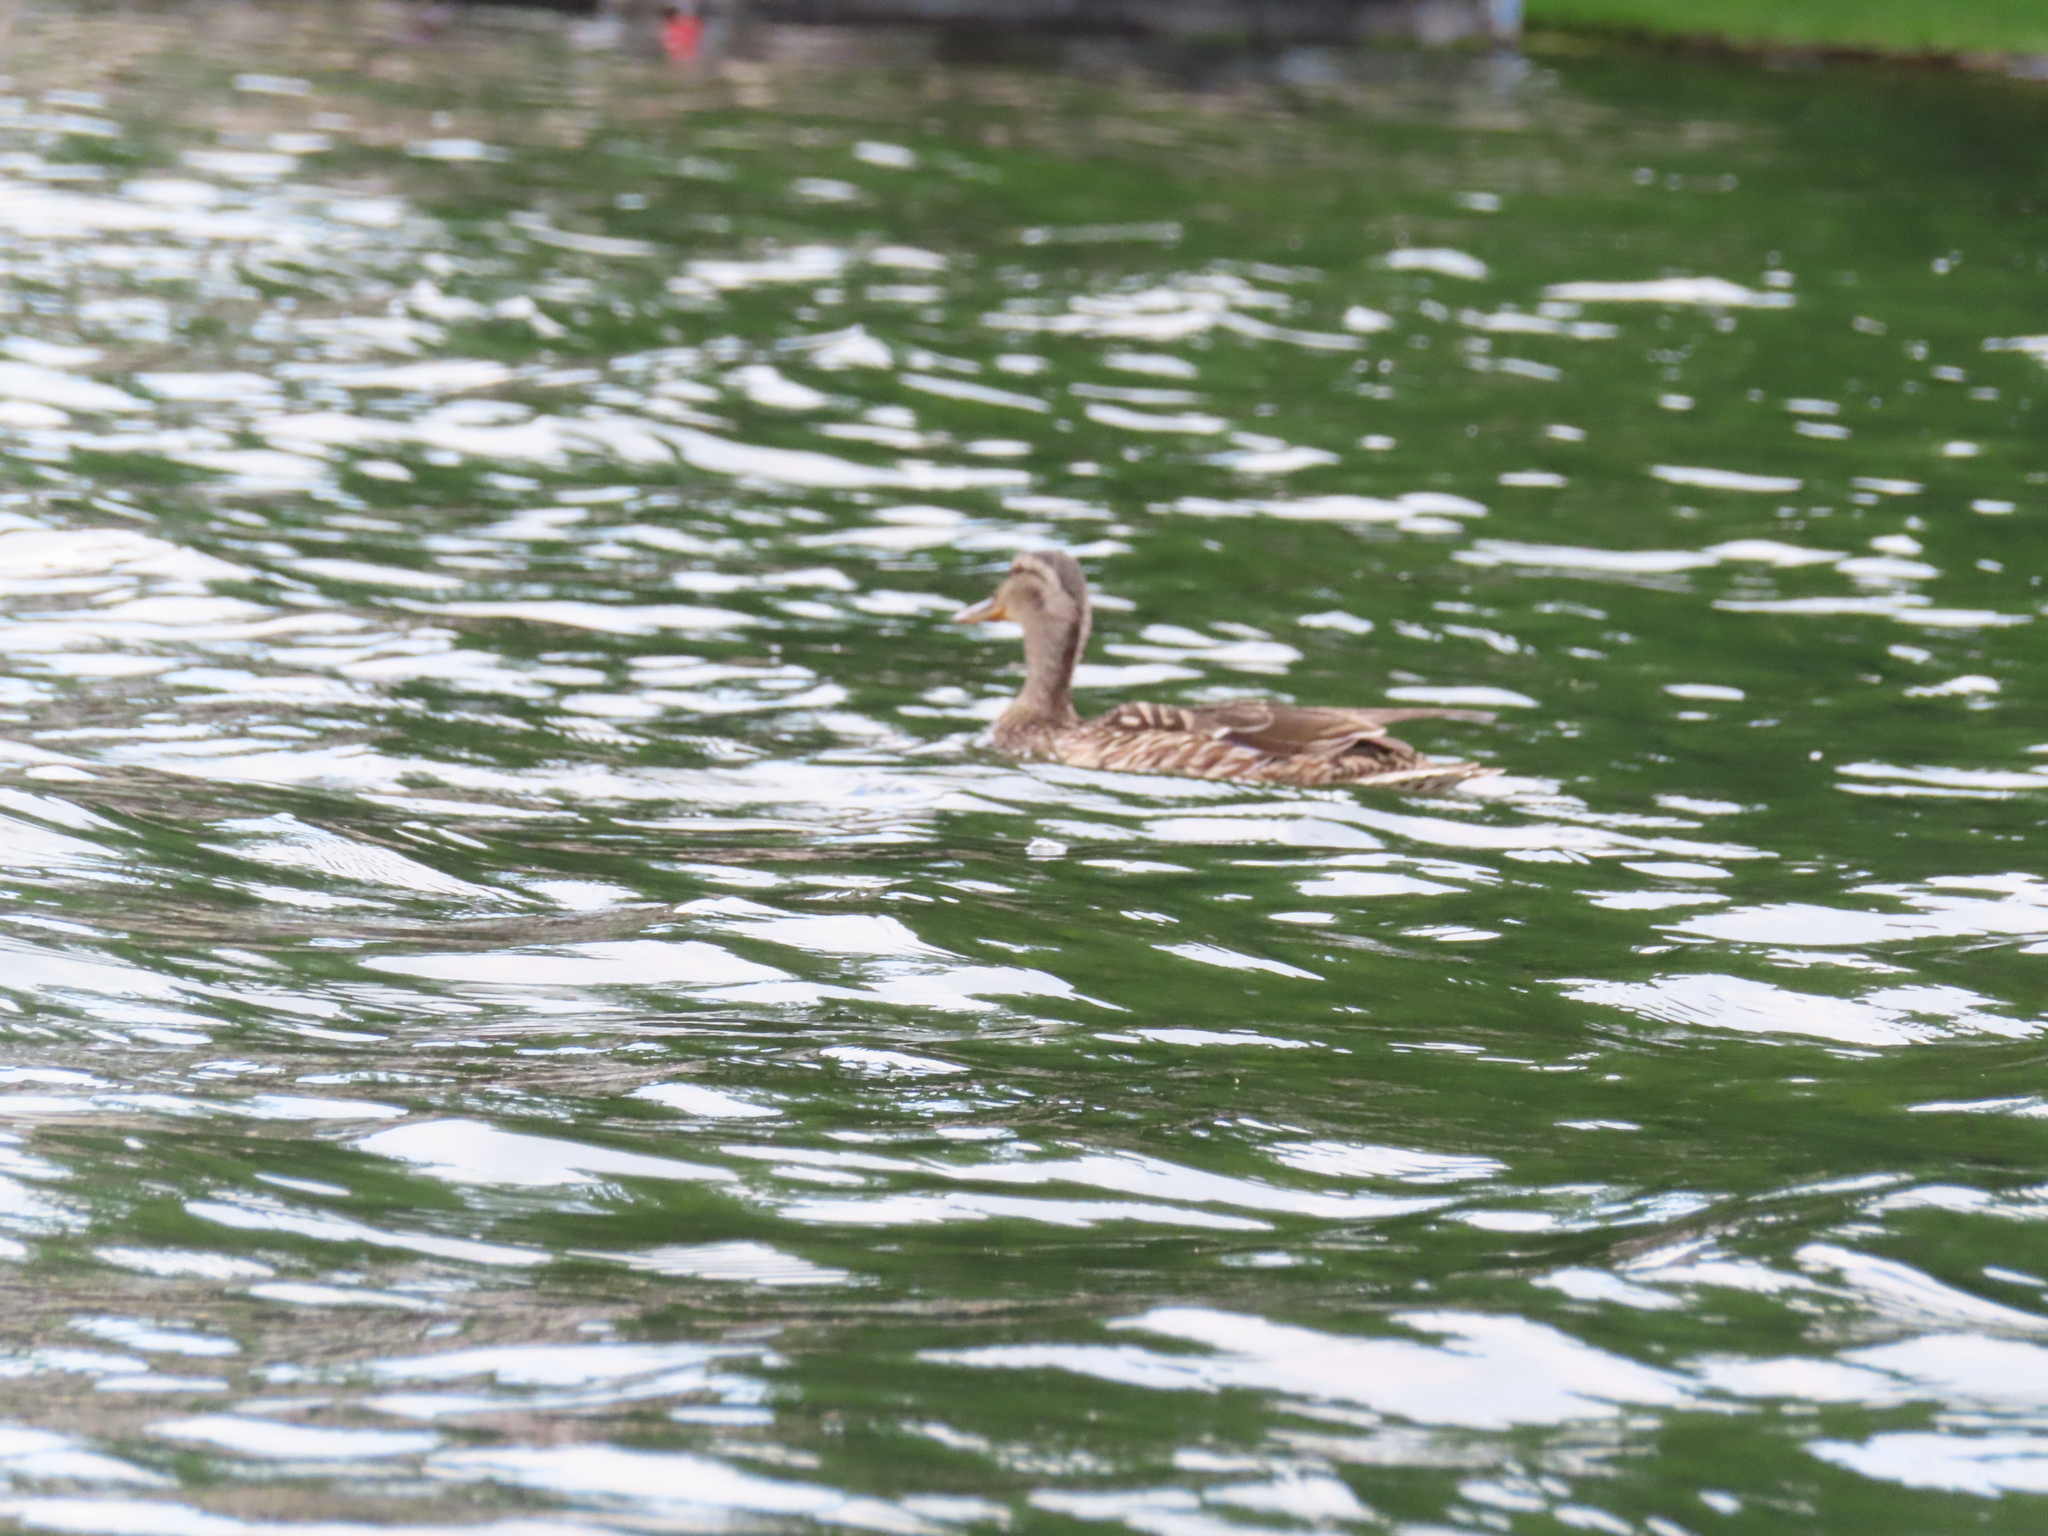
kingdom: Animalia
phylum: Chordata
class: Aves
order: Anseriformes
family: Anatidae
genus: Anas
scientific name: Anas platyrhynchos
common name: Mallard
